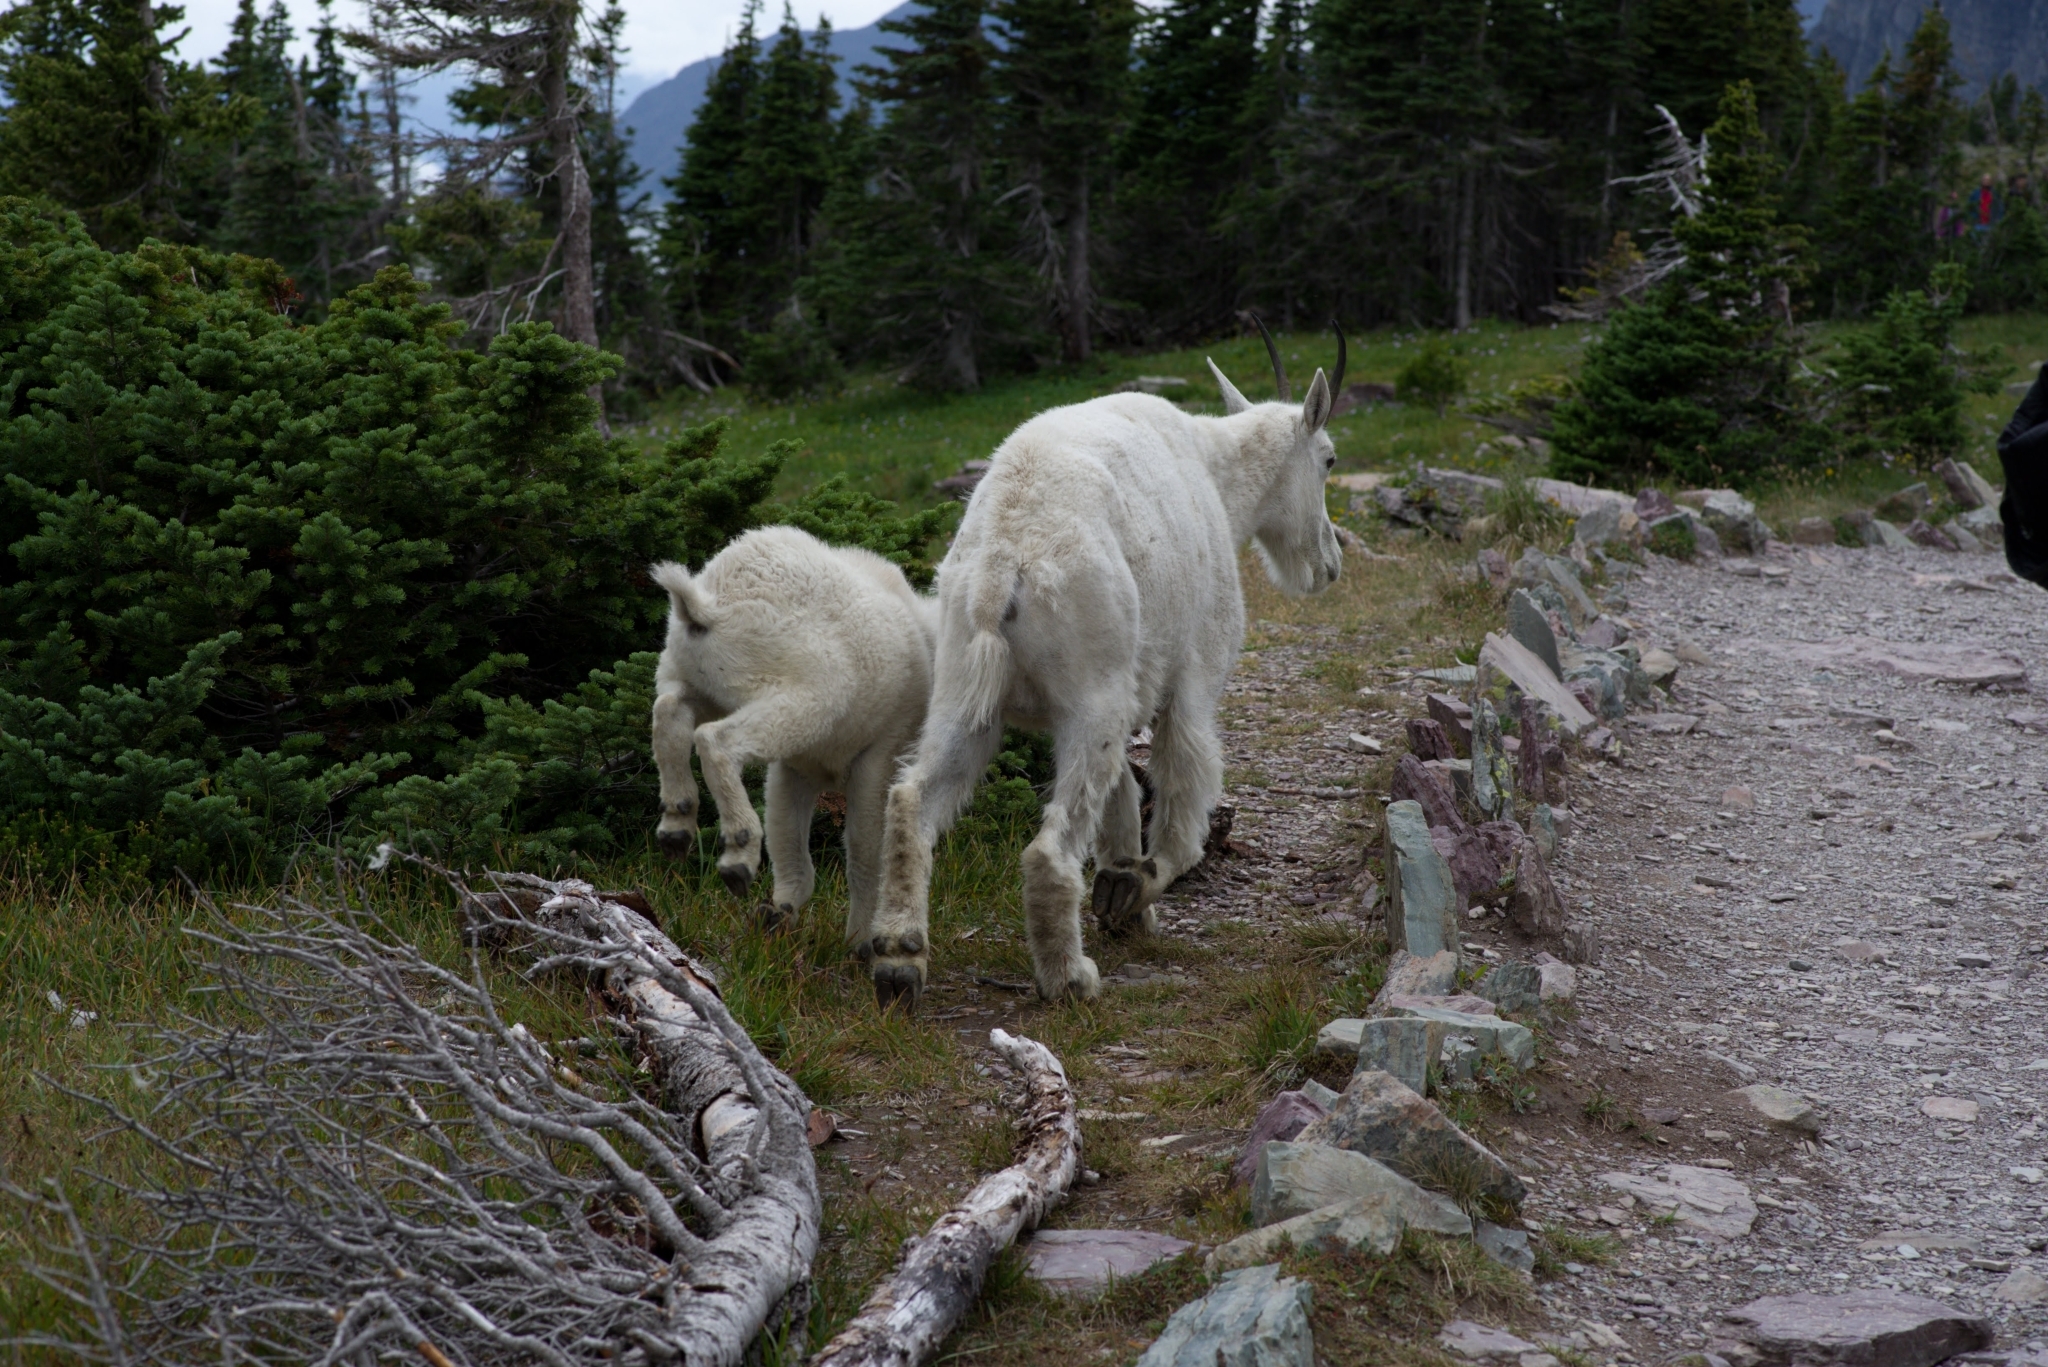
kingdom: Animalia
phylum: Chordata
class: Mammalia
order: Artiodactyla
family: Bovidae
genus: Oreamnos
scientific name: Oreamnos americanus
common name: Mountain goat
